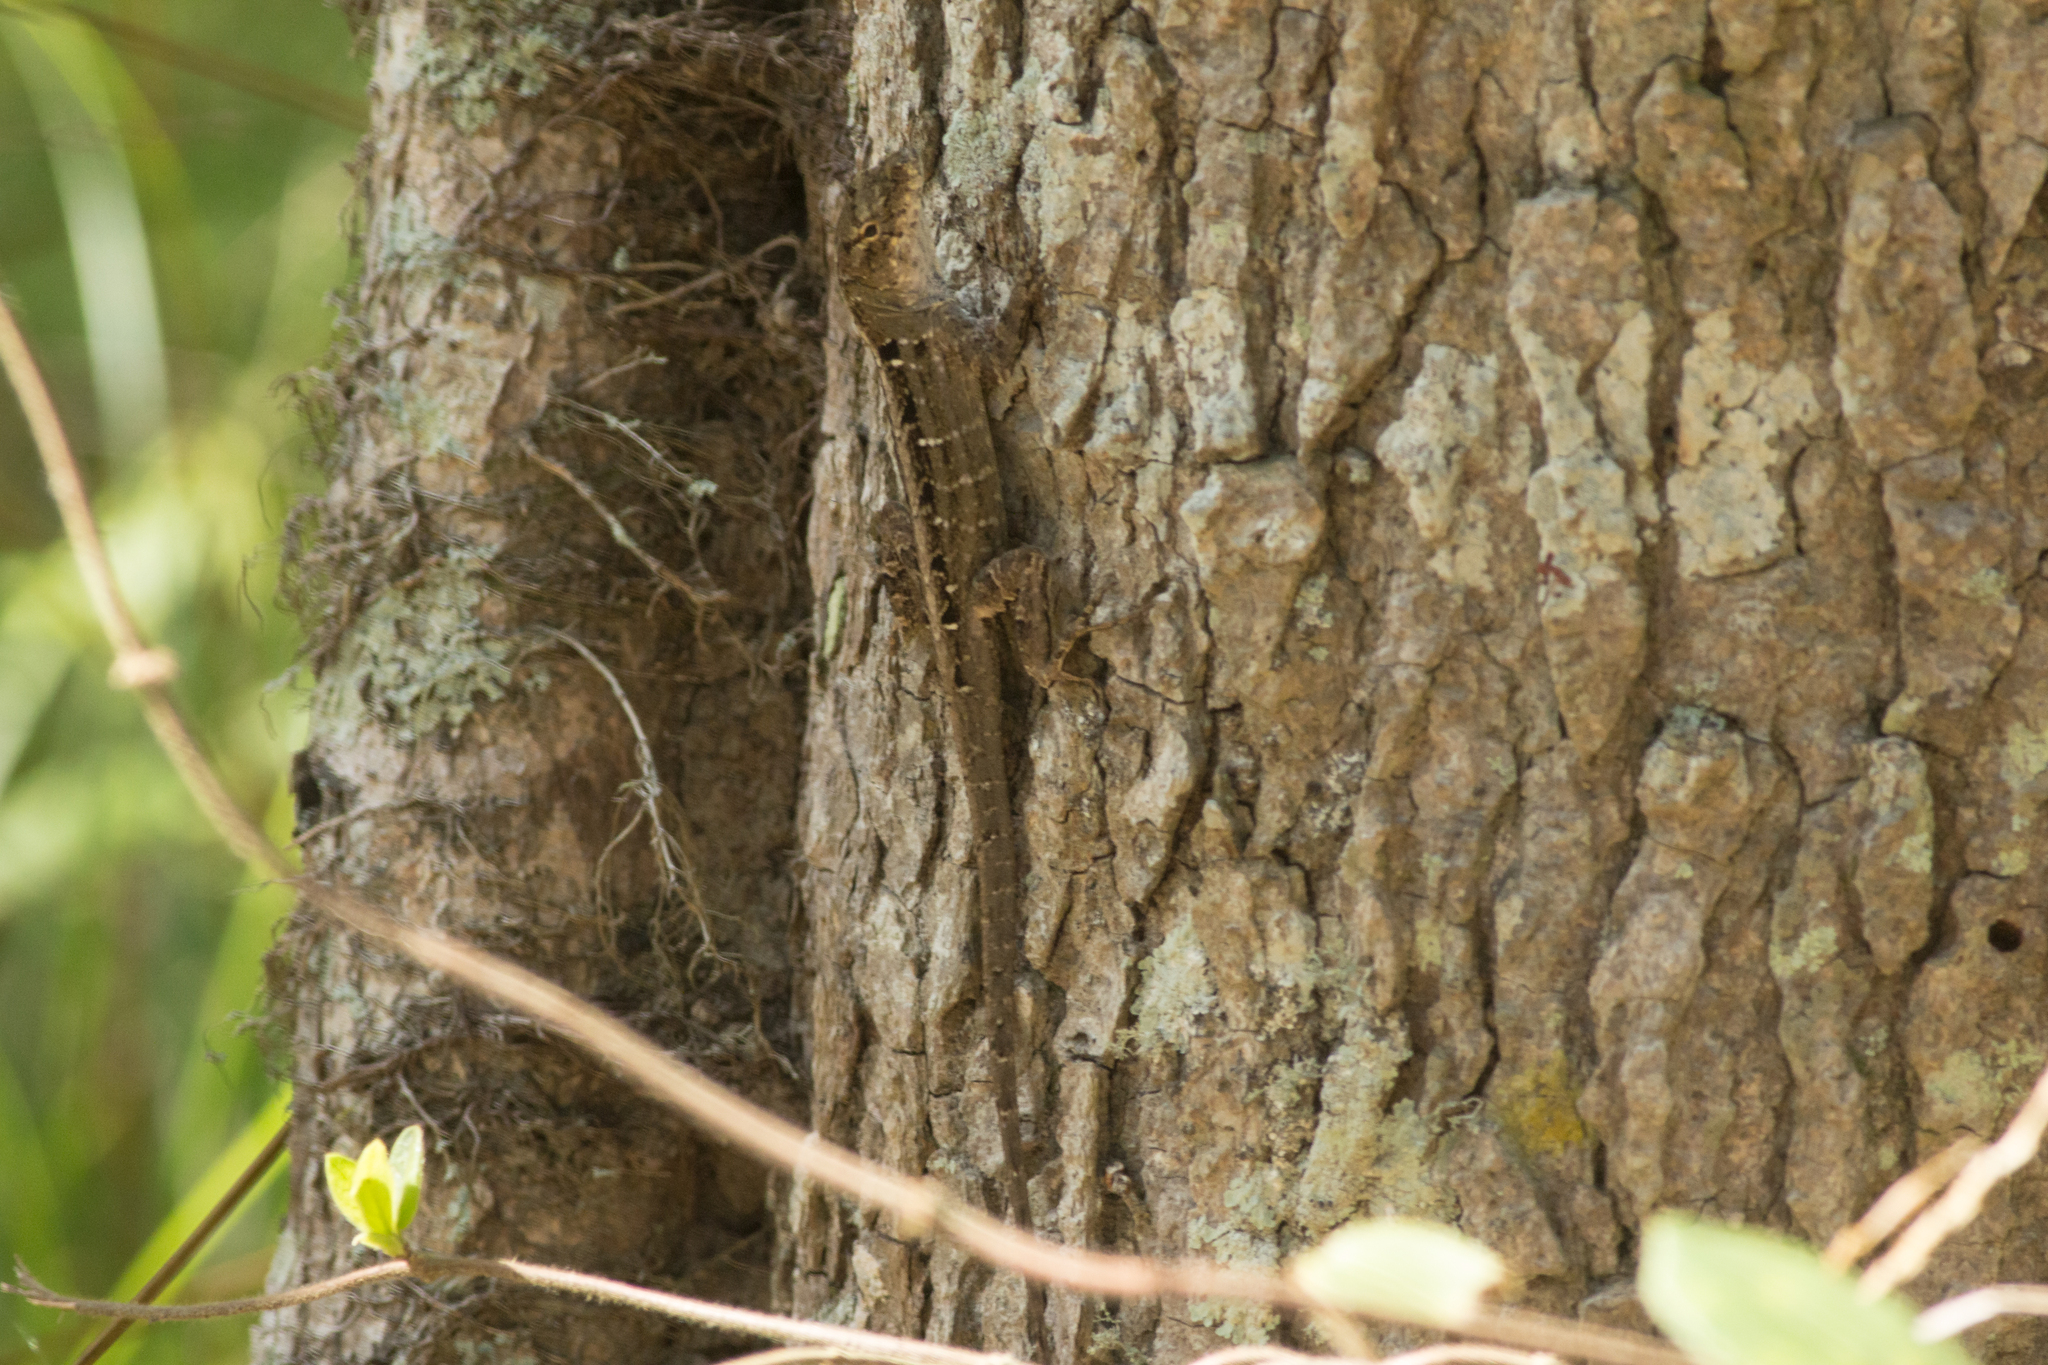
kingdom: Animalia
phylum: Chordata
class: Squamata
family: Dactyloidae
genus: Anolis
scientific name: Anolis sagrei
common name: Brown anole
